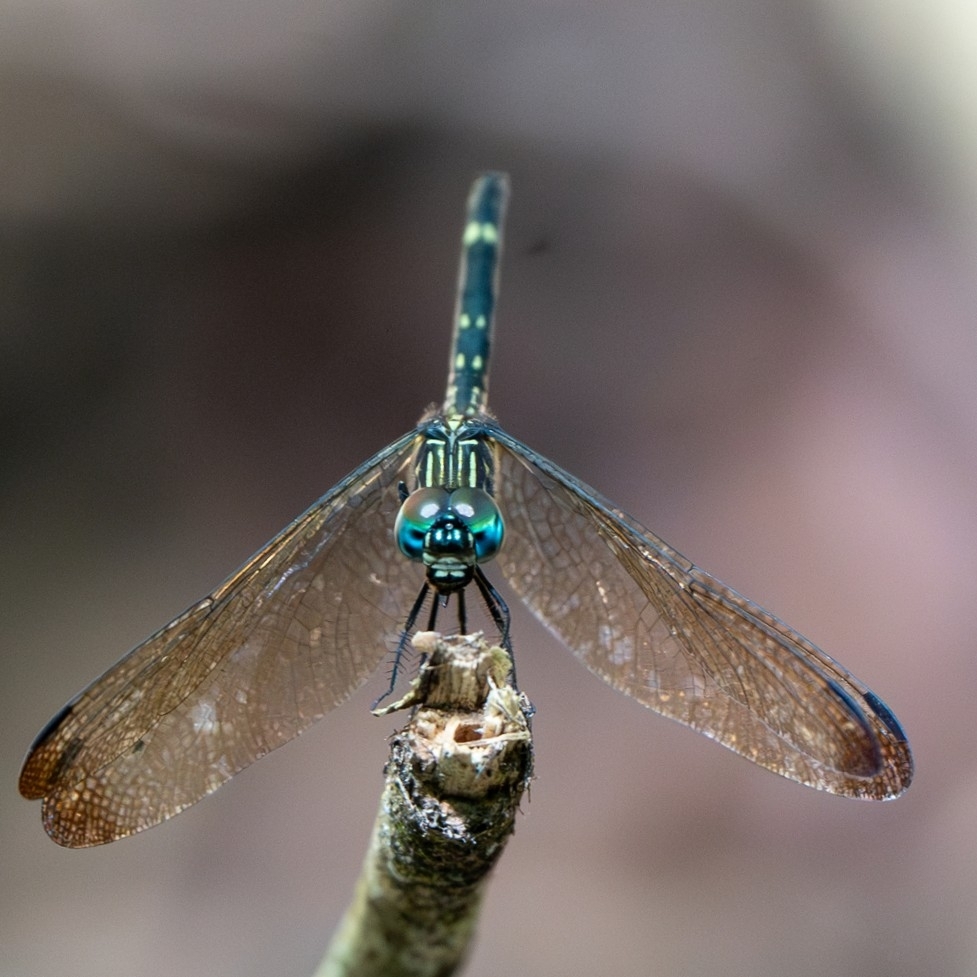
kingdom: Animalia
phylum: Arthropoda
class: Insecta
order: Odonata
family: Libellulidae
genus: Dythemis
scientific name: Dythemis nigra
